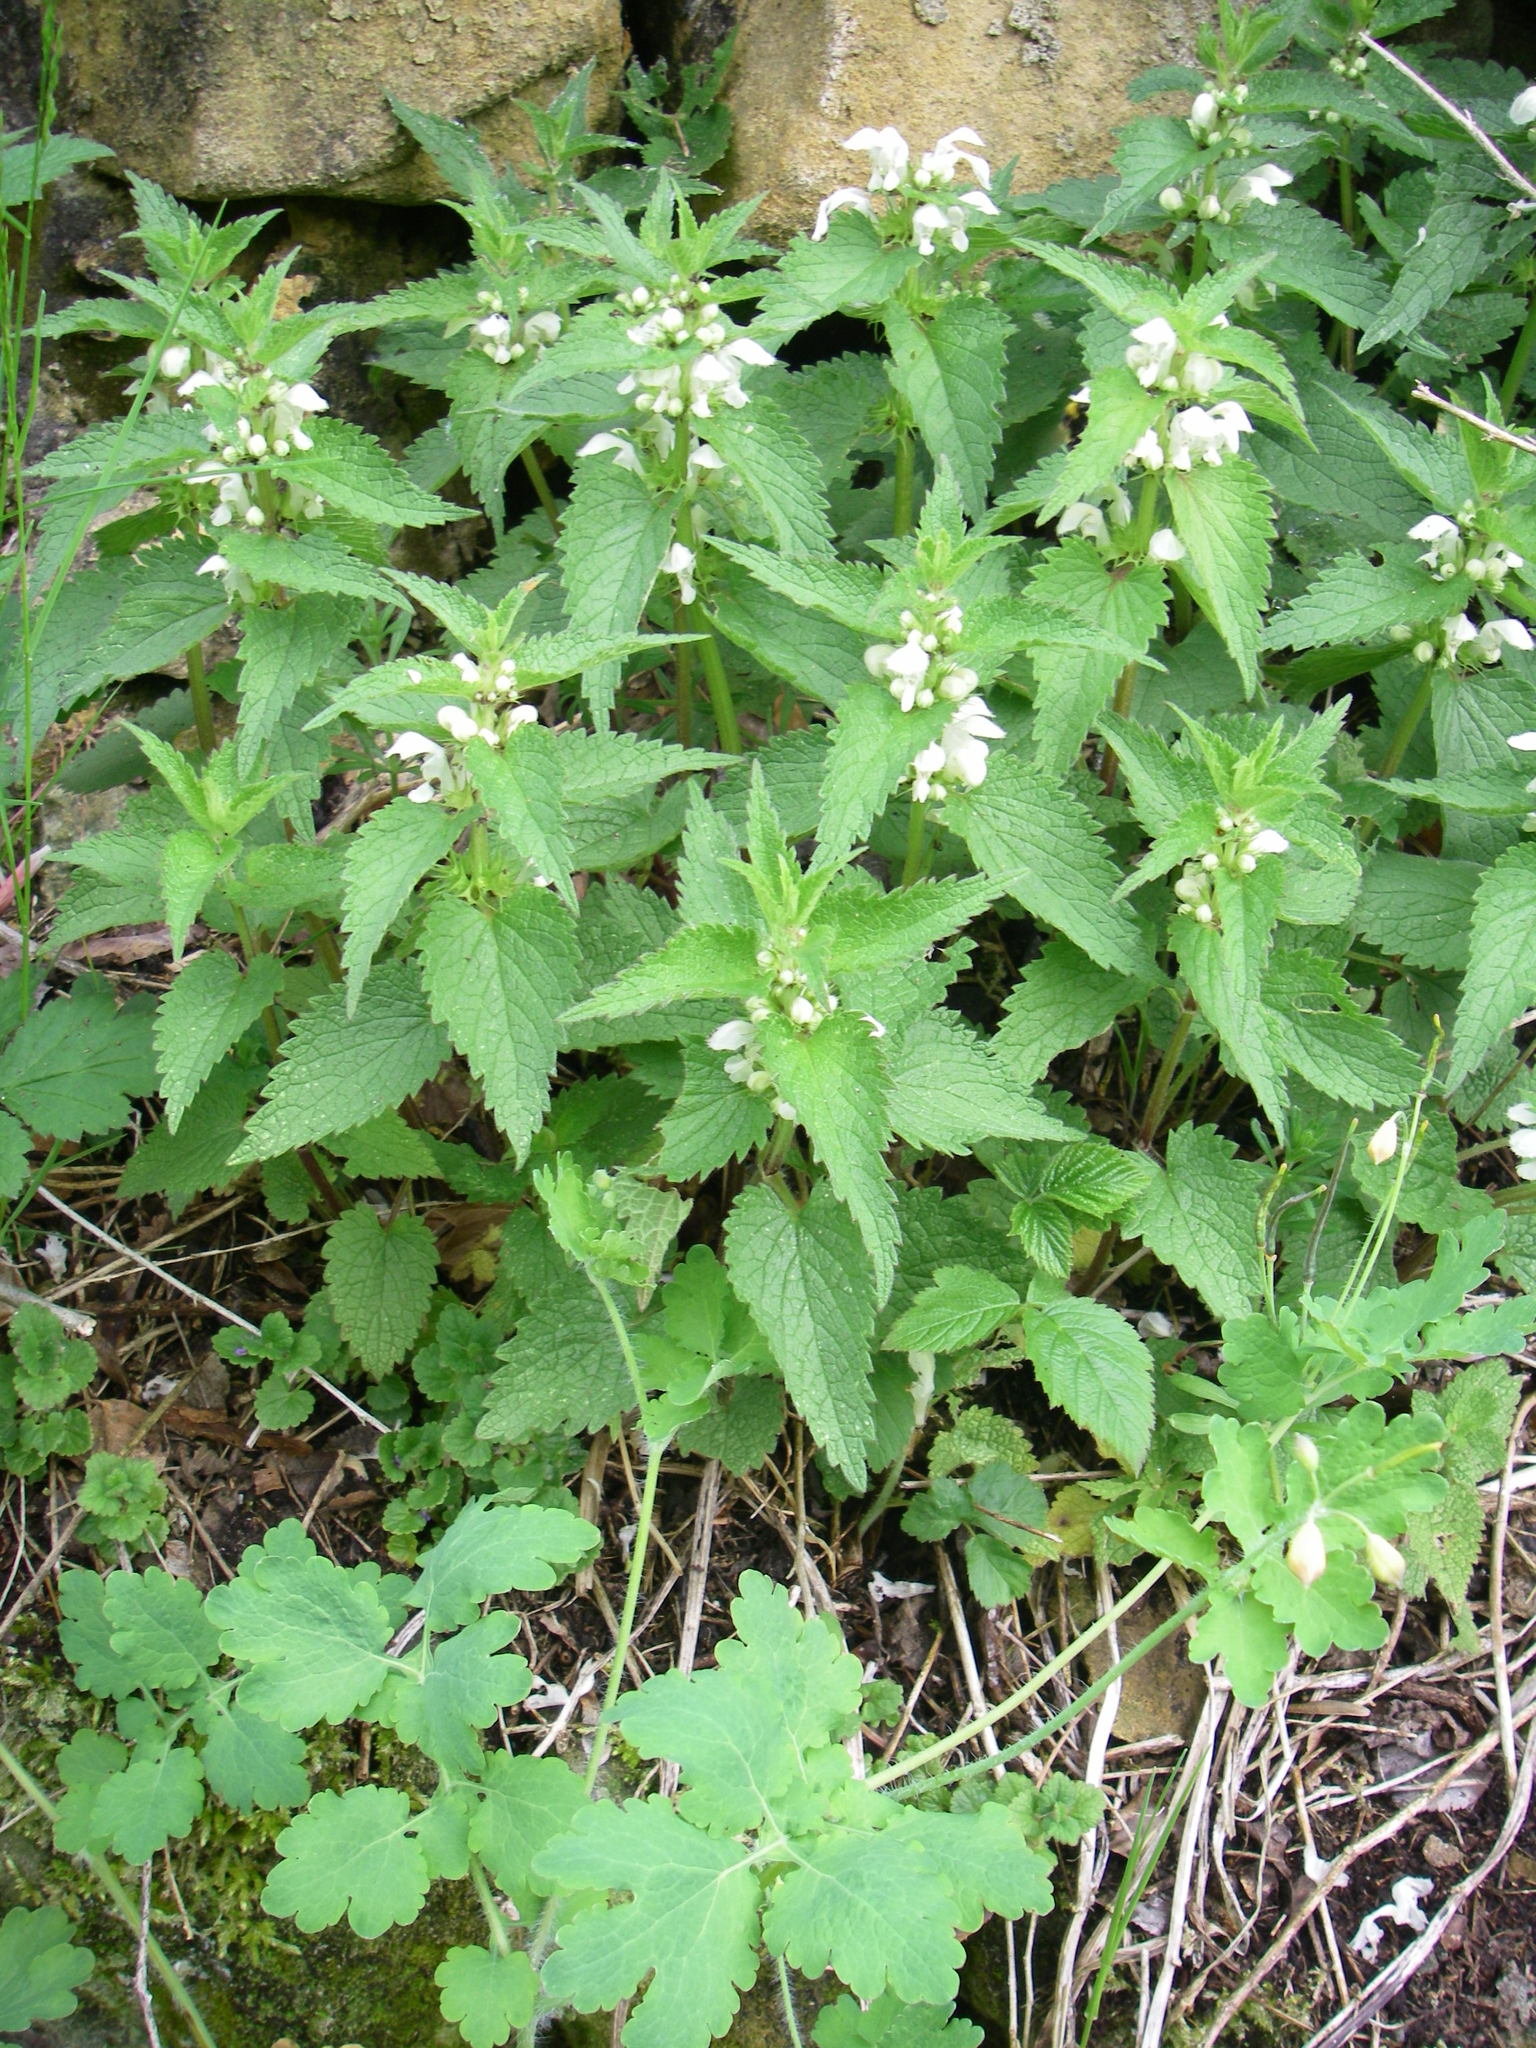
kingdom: Plantae
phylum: Tracheophyta
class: Magnoliopsida
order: Lamiales
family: Lamiaceae
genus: Lamium
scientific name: Lamium album
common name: White dead-nettle
